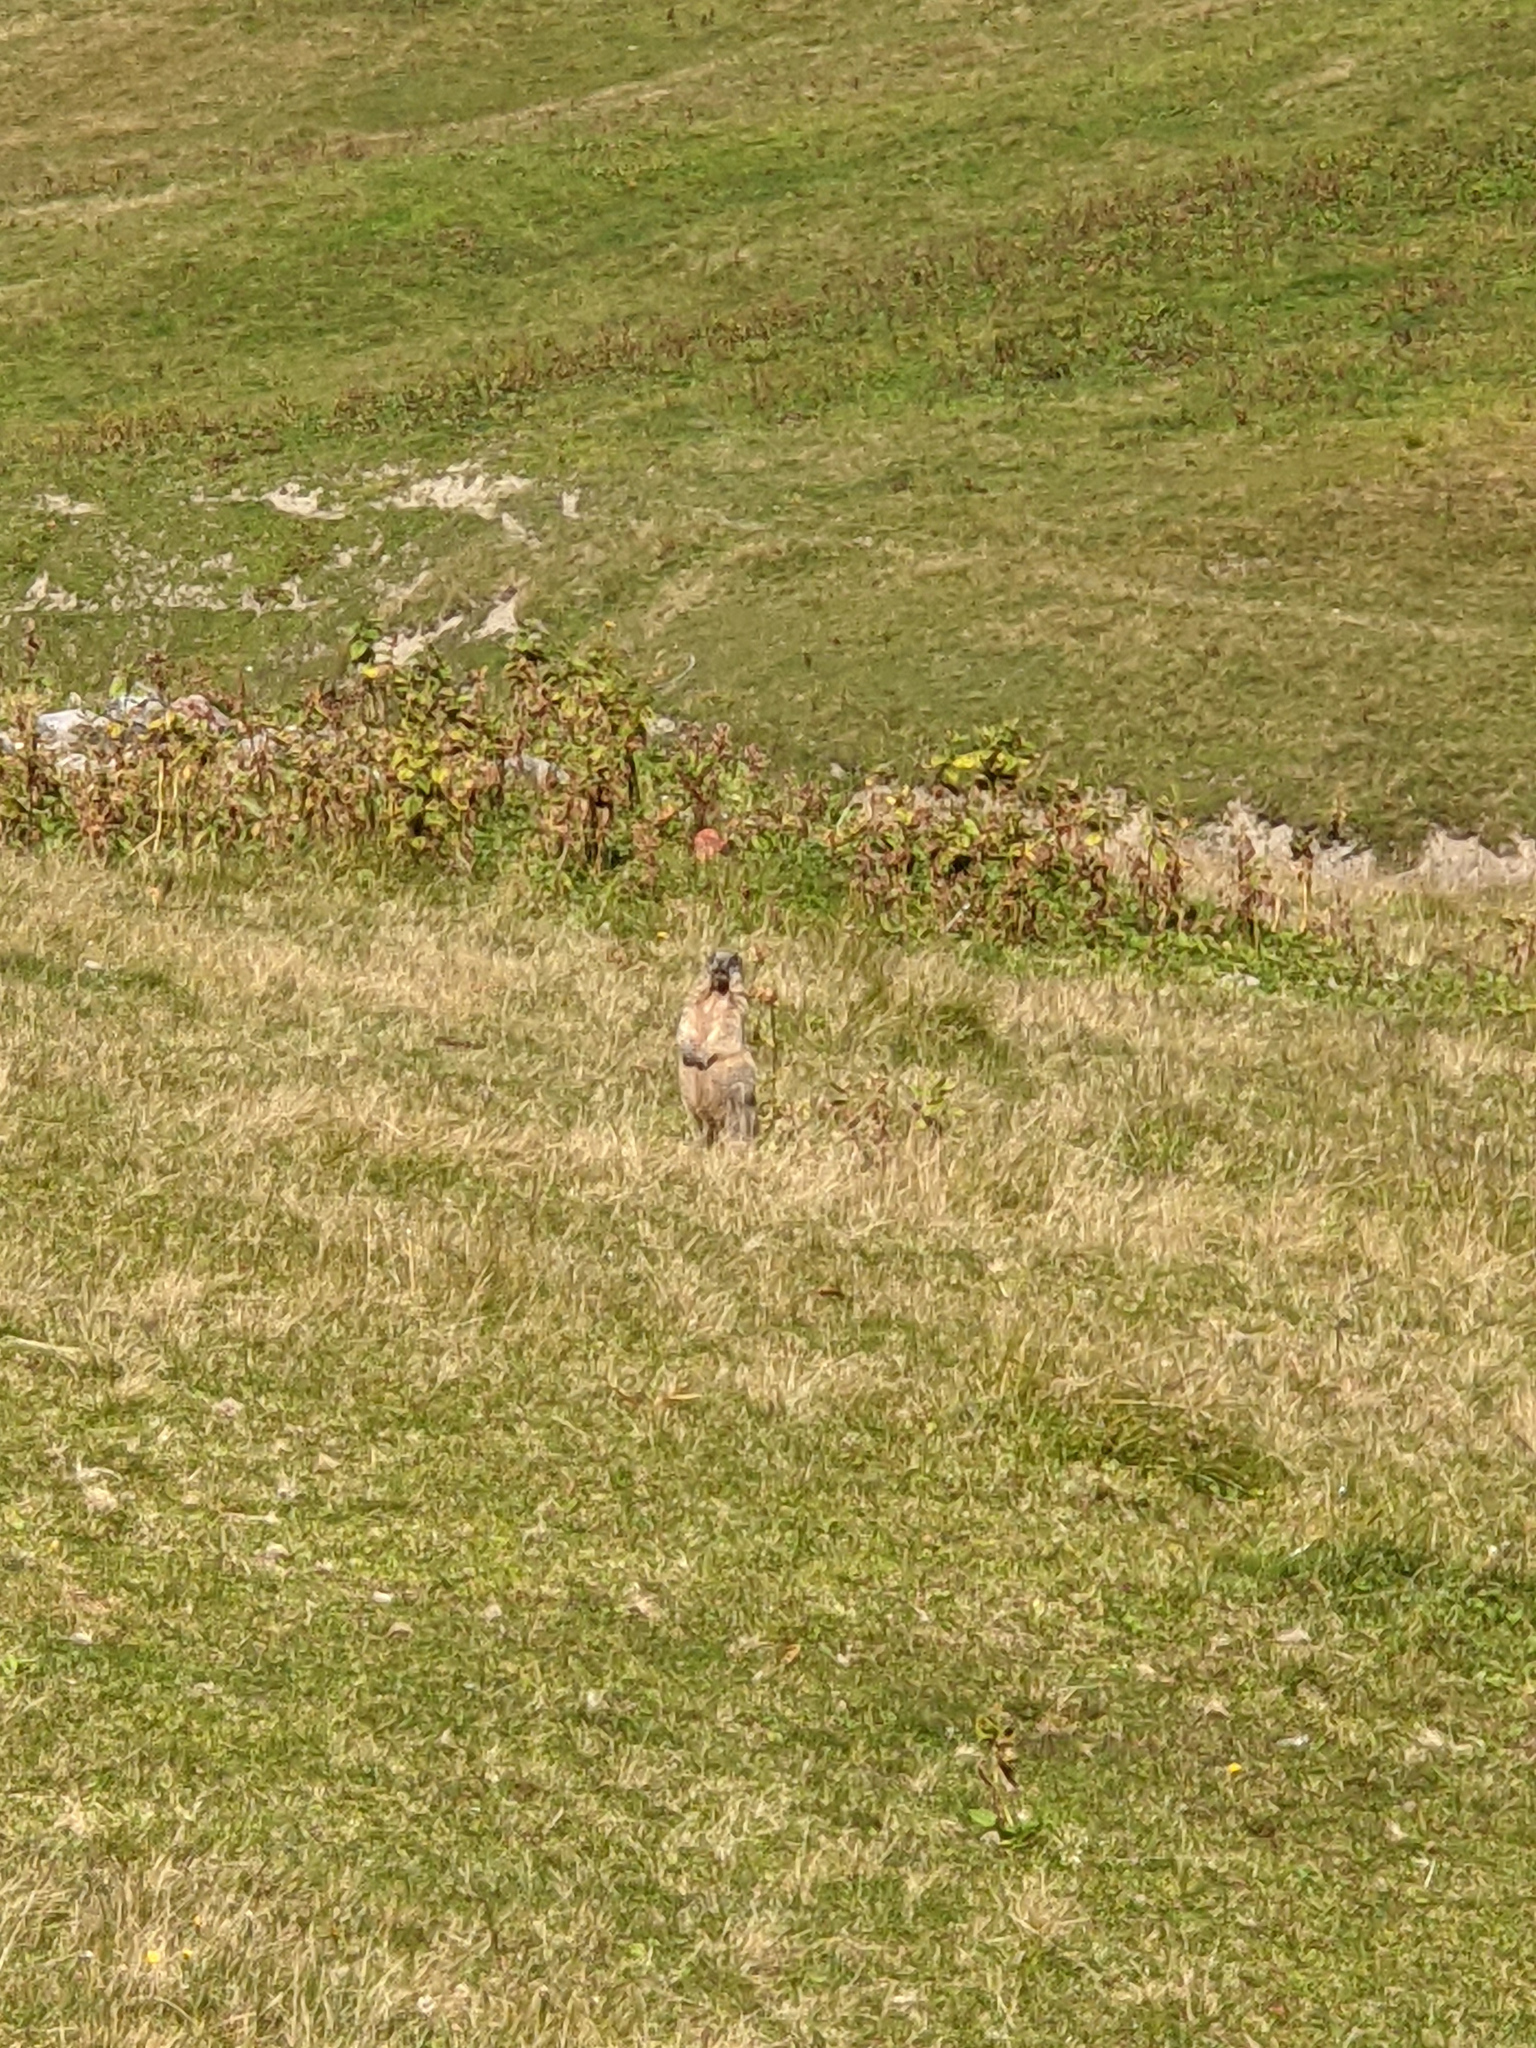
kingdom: Animalia
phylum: Chordata
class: Mammalia
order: Rodentia
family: Sciuridae
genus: Marmota
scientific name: Marmota marmota
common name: Alpine marmot
